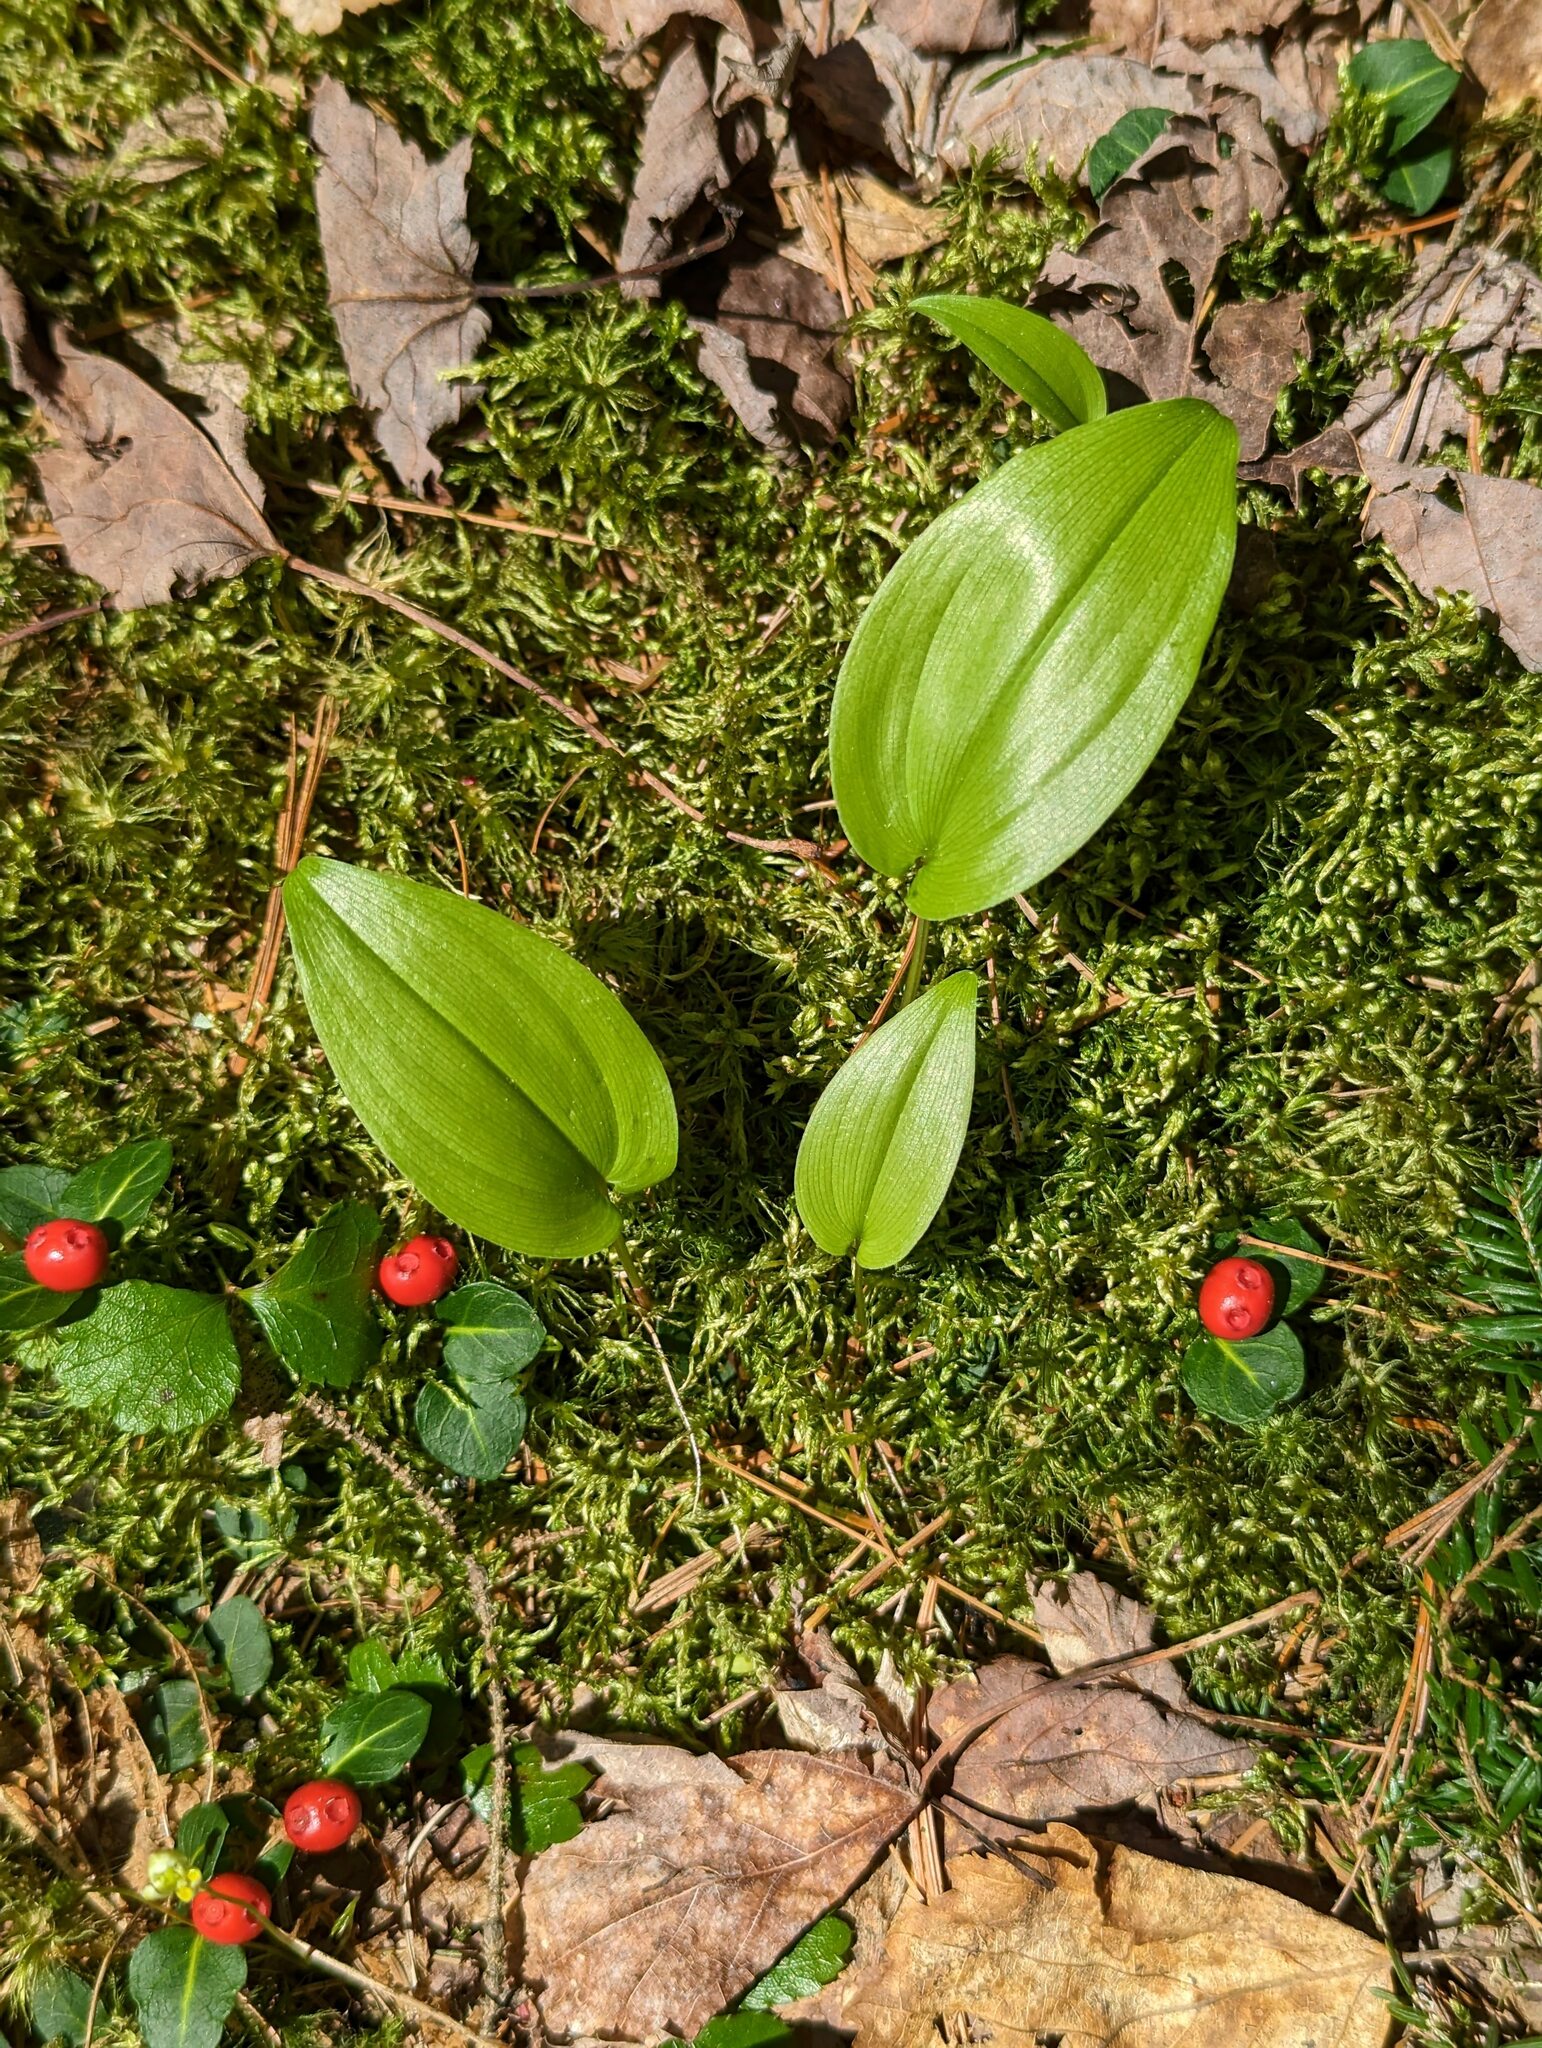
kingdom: Plantae
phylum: Tracheophyta
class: Liliopsida
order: Asparagales
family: Asparagaceae
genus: Maianthemum
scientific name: Maianthemum canadense
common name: False lily-of-the-valley
